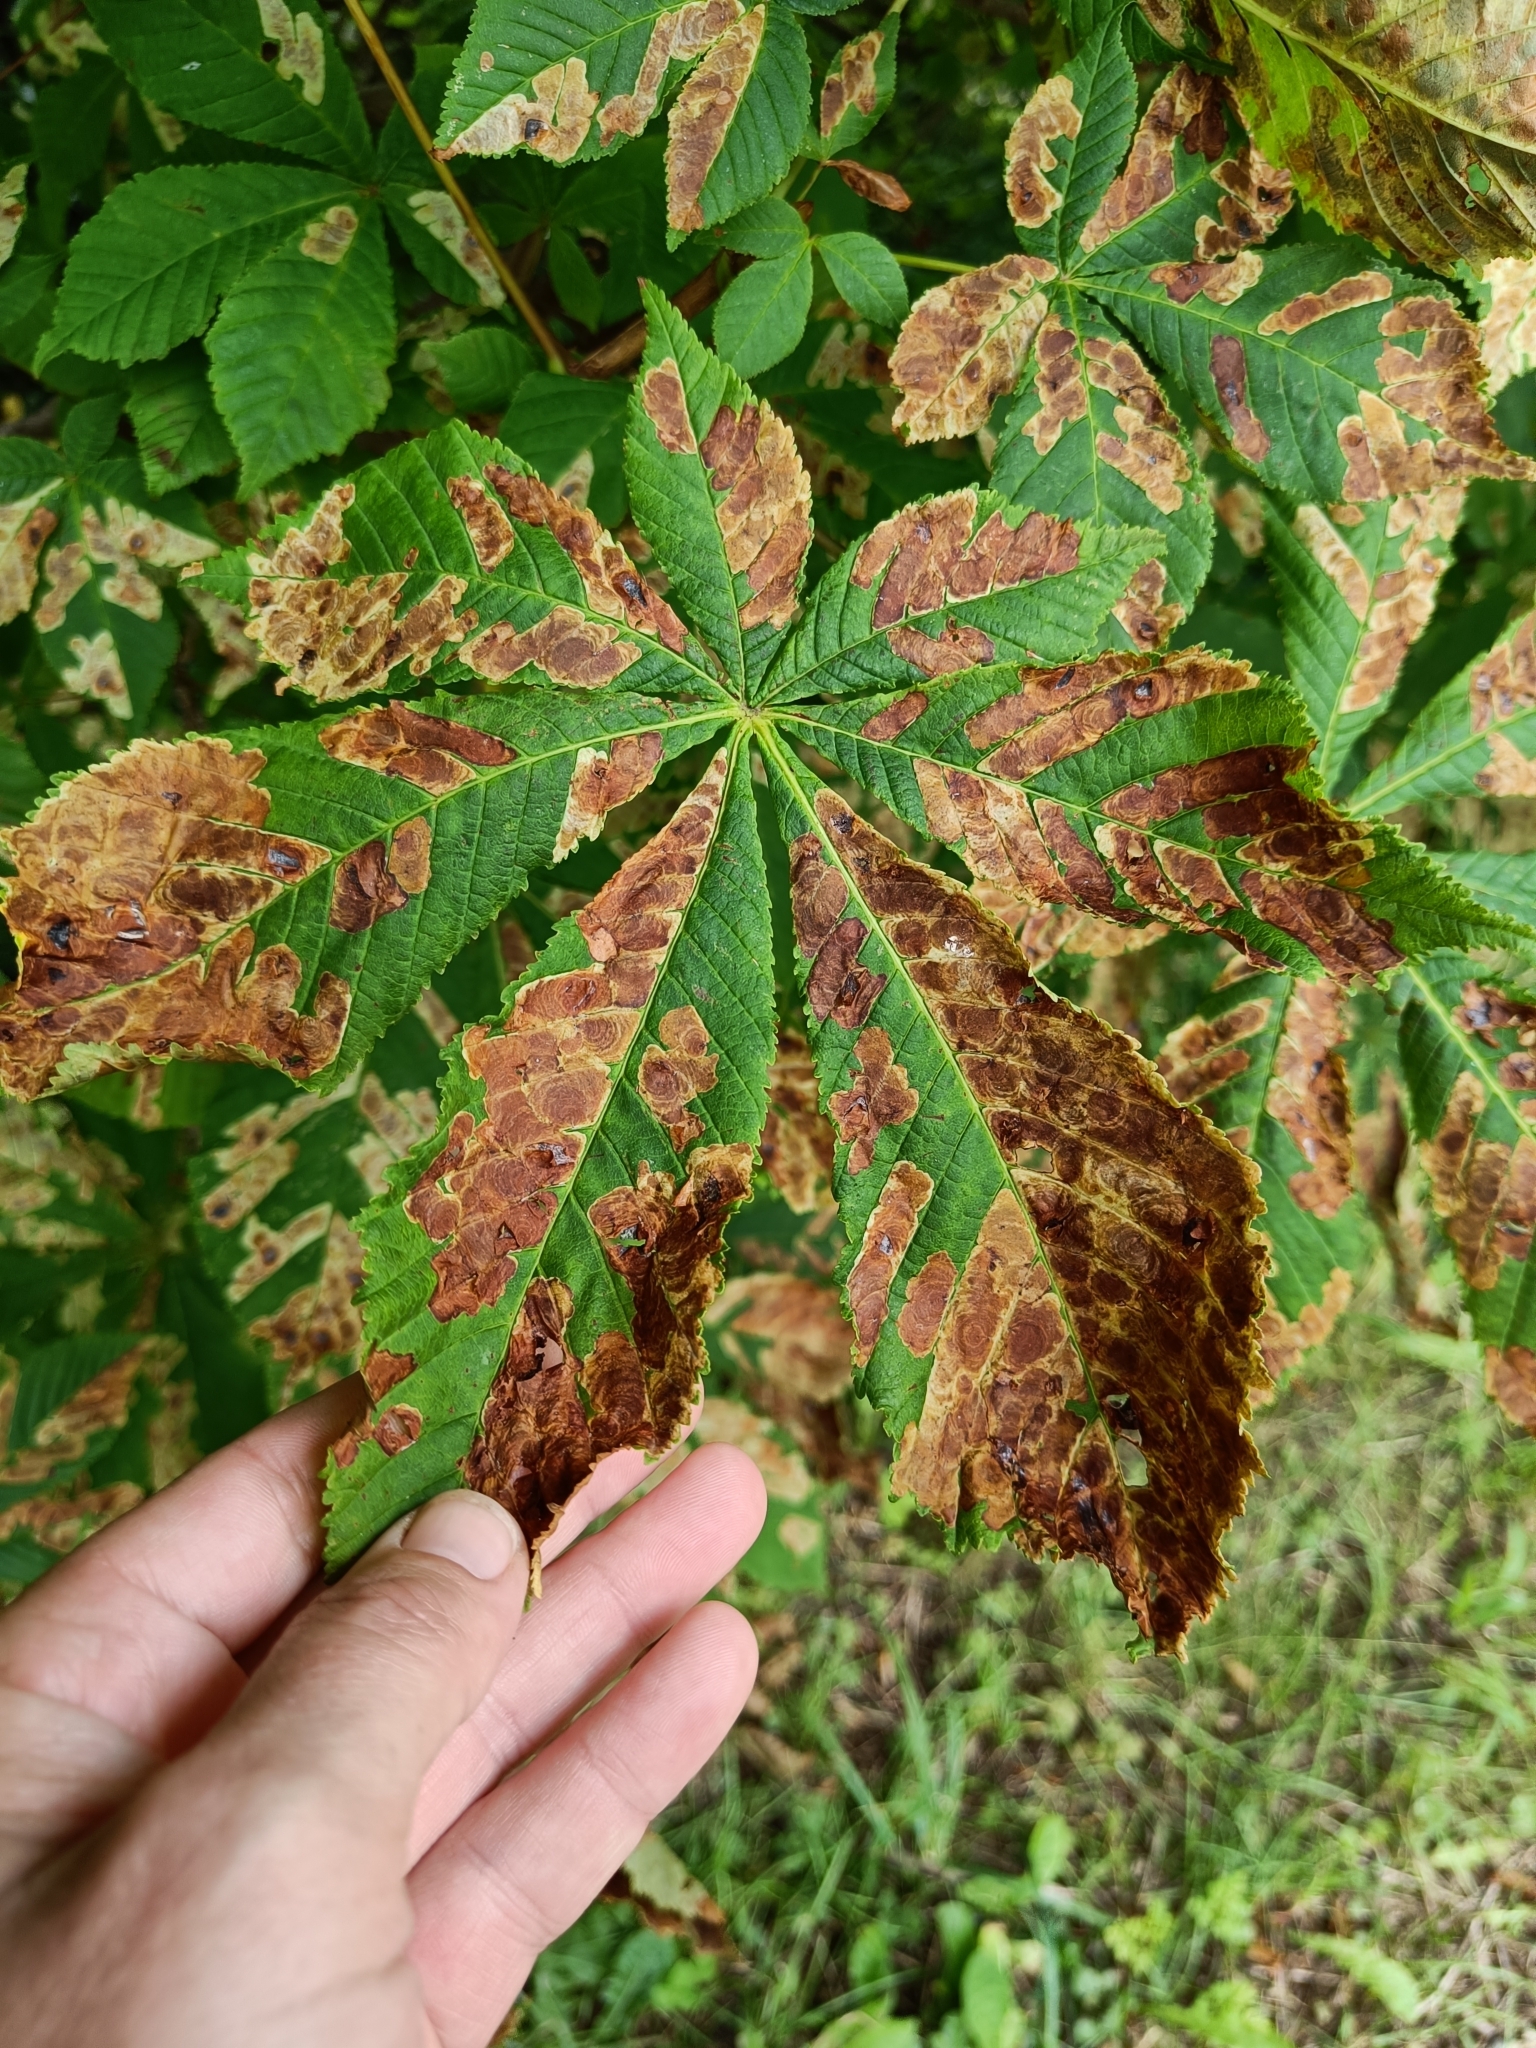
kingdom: Animalia
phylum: Arthropoda
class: Insecta
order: Lepidoptera
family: Gracillariidae
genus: Cameraria
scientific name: Cameraria ohridella
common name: Horse-chestnut leaf-miner
